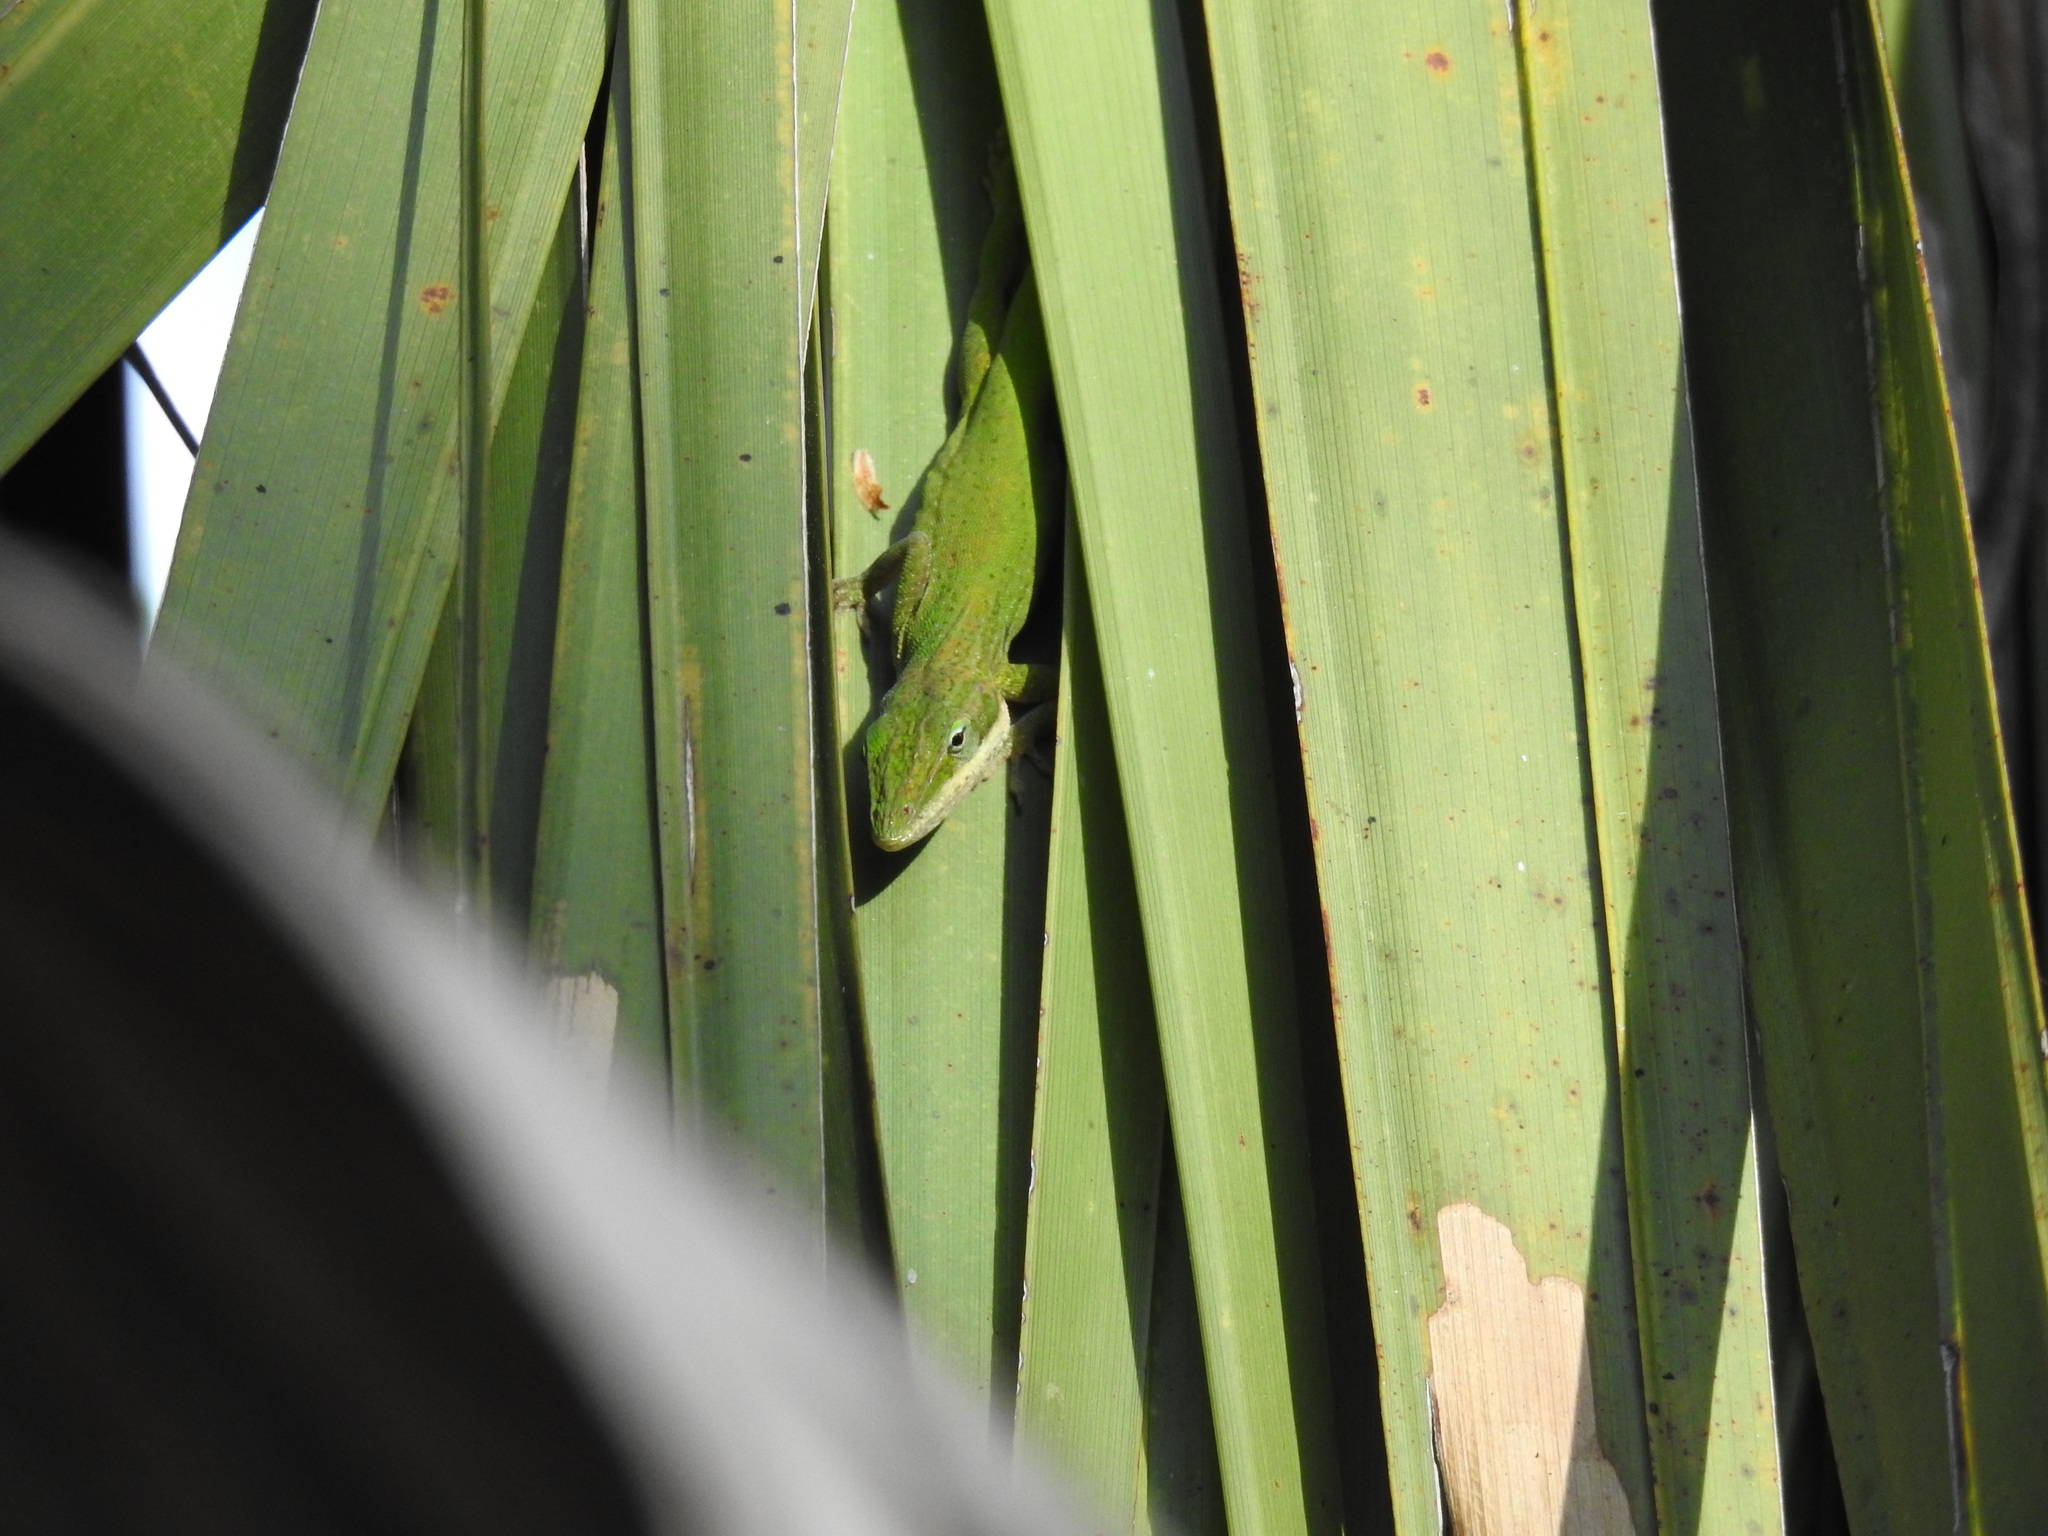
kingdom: Animalia
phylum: Chordata
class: Squamata
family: Dactyloidae
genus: Anolis
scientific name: Anolis carolinensis
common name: Green anole
